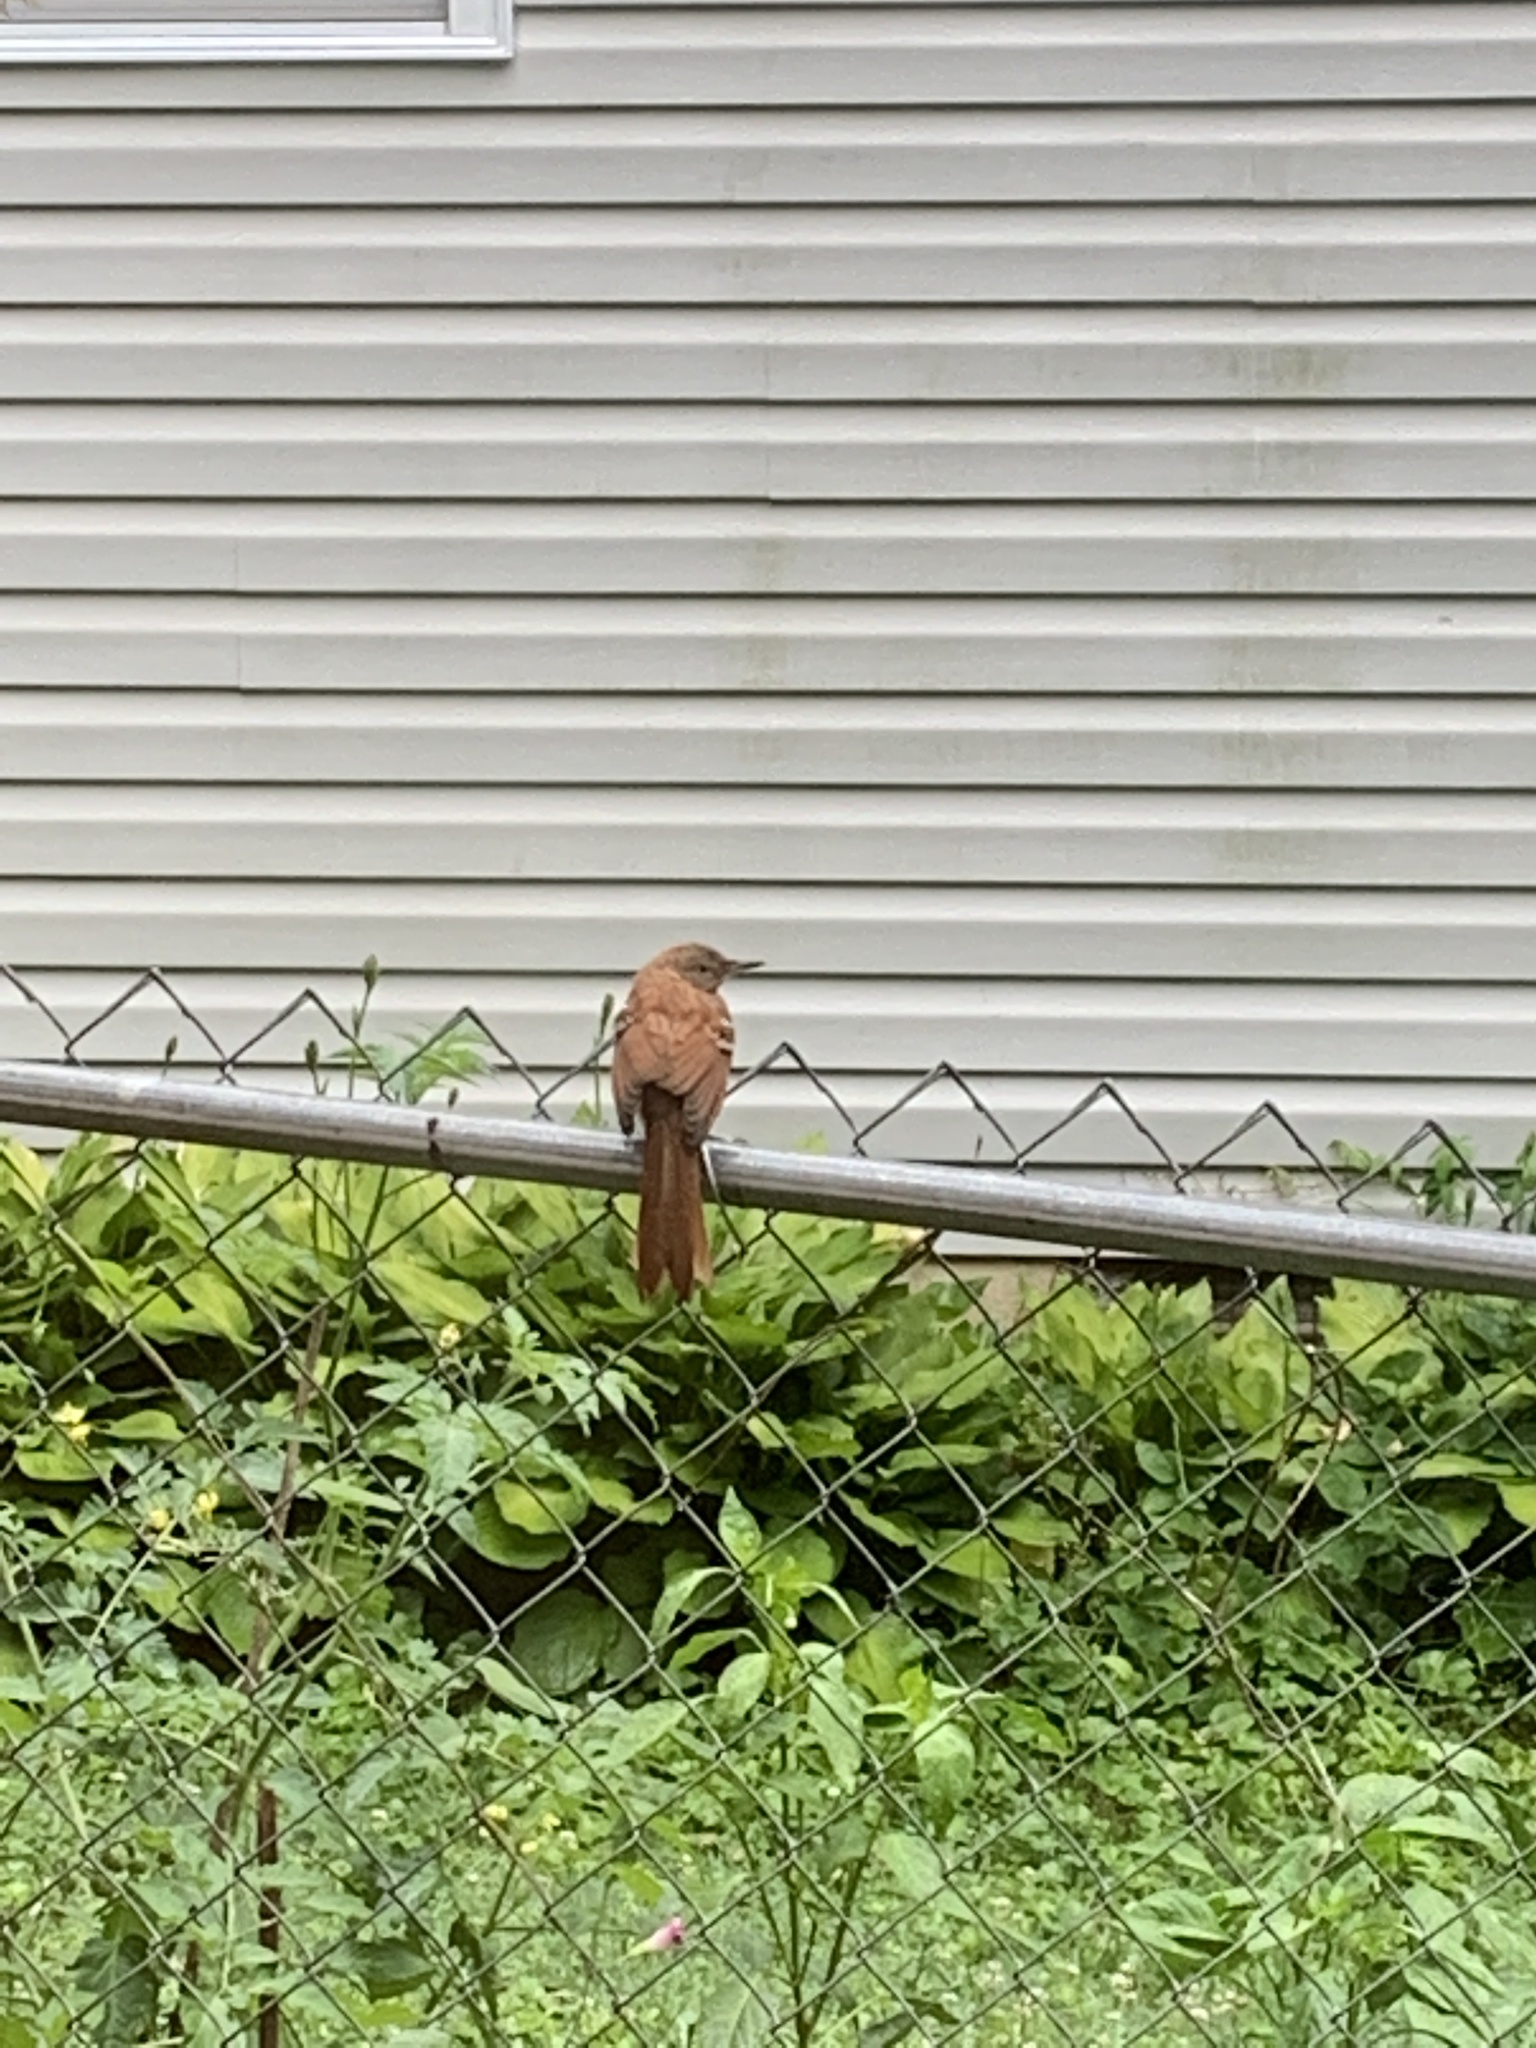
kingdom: Animalia
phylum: Chordata
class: Aves
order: Passeriformes
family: Mimidae
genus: Toxostoma
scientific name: Toxostoma rufum
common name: Brown thrasher
